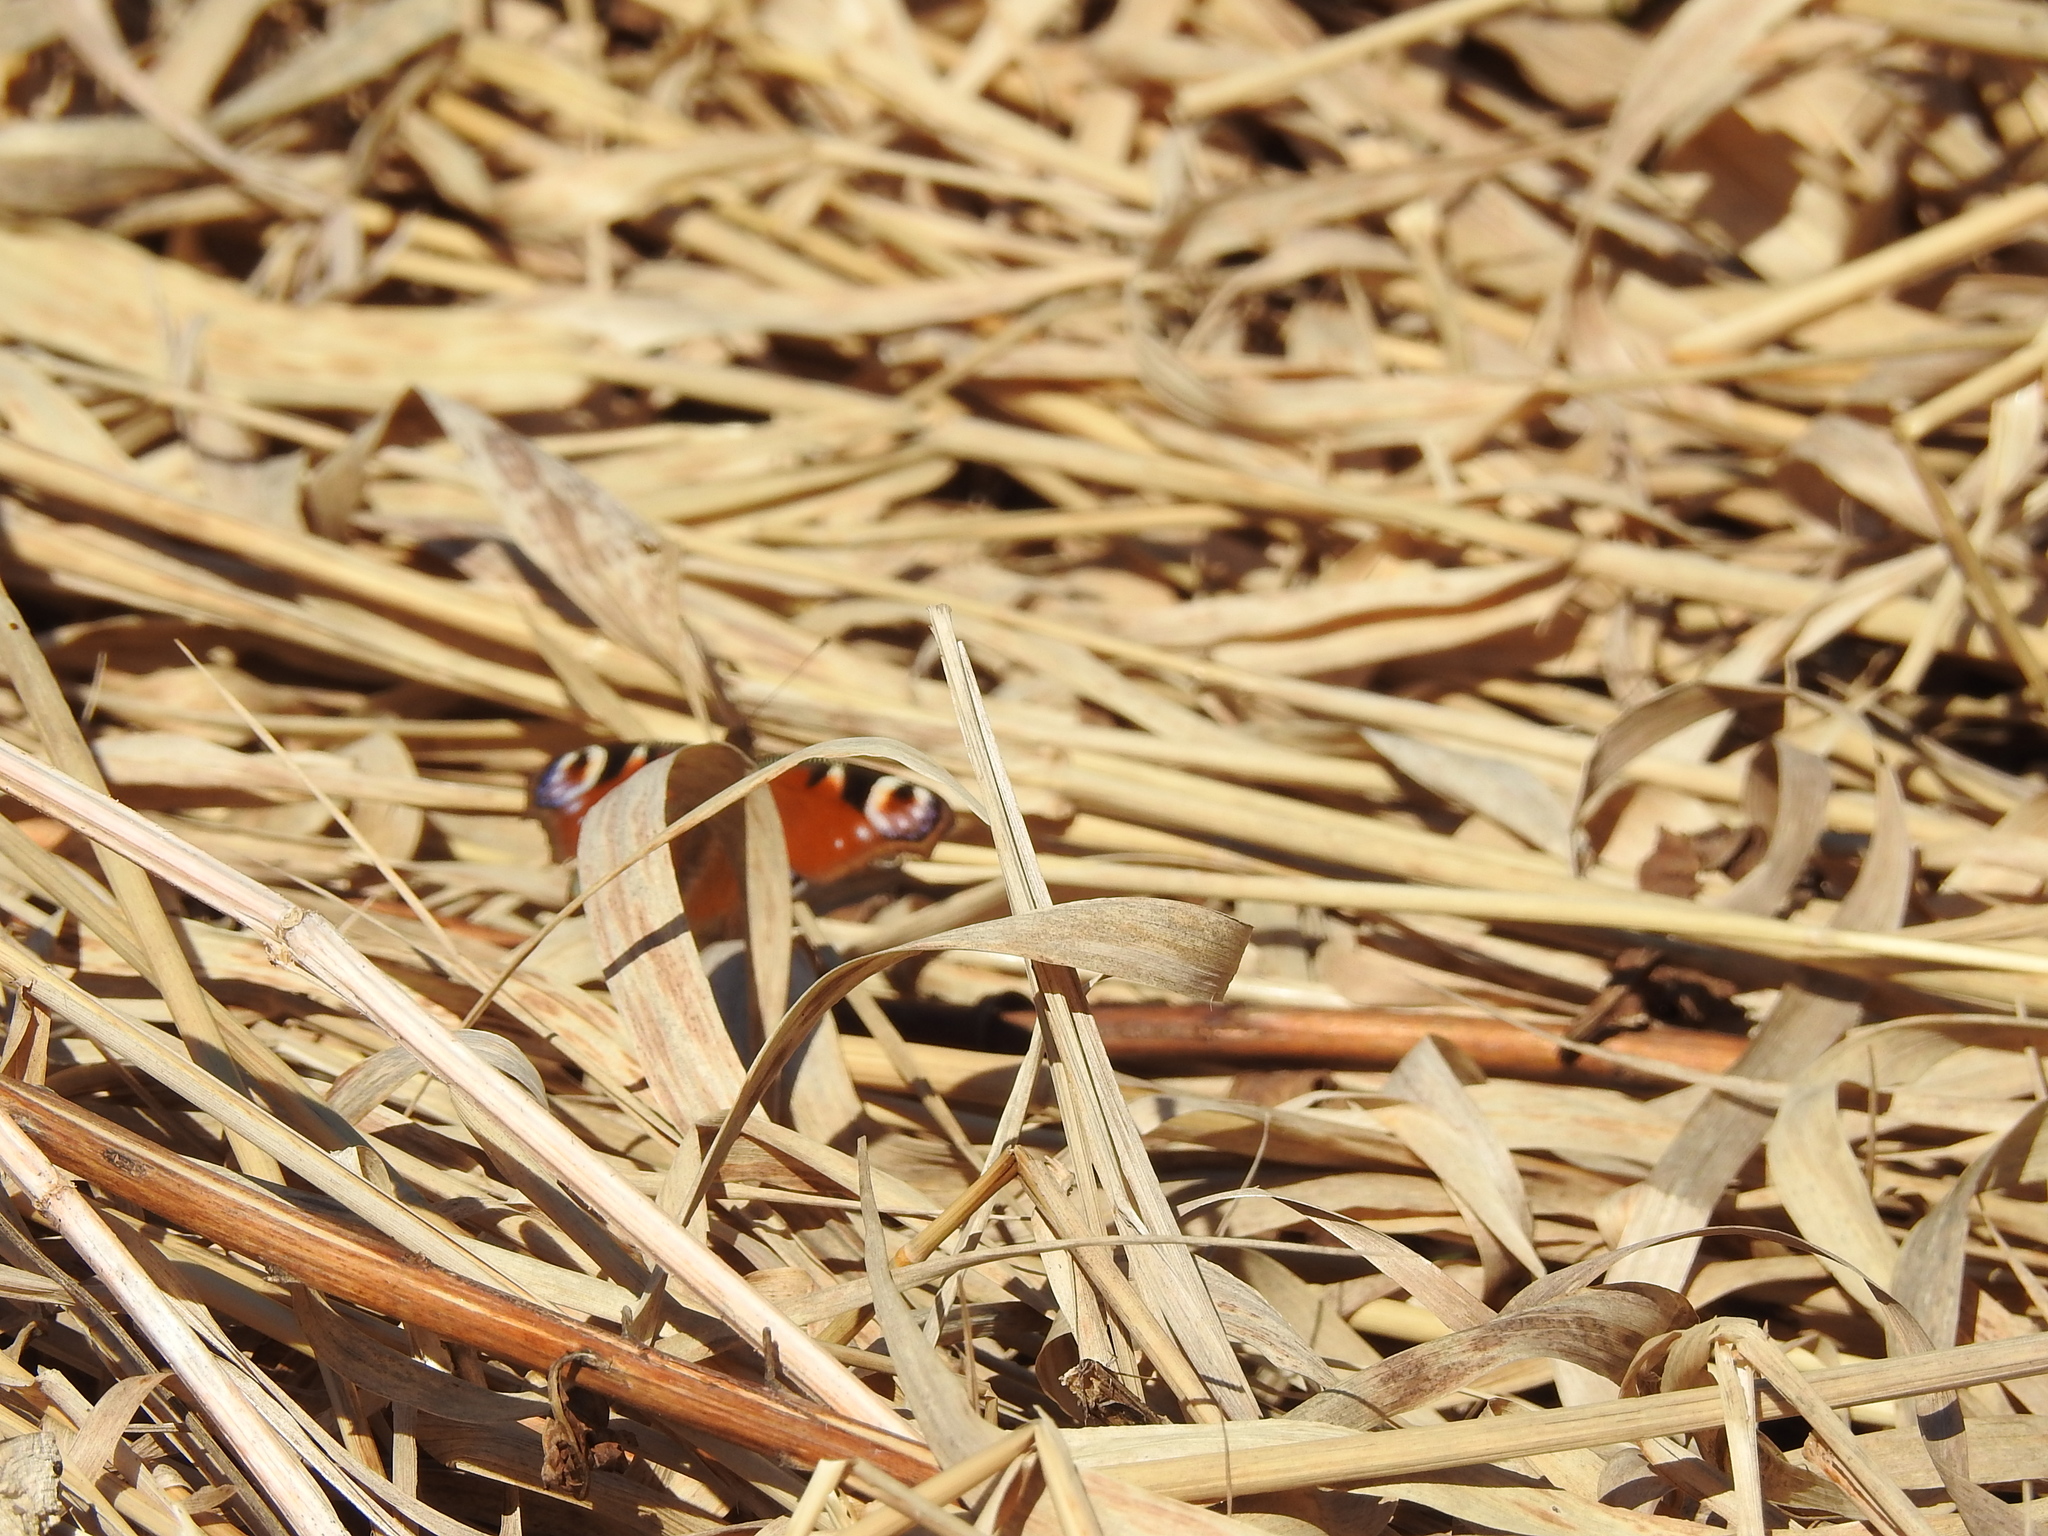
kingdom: Animalia
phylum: Arthropoda
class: Insecta
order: Lepidoptera
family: Nymphalidae
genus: Aglais
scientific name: Aglais io
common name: Peacock
